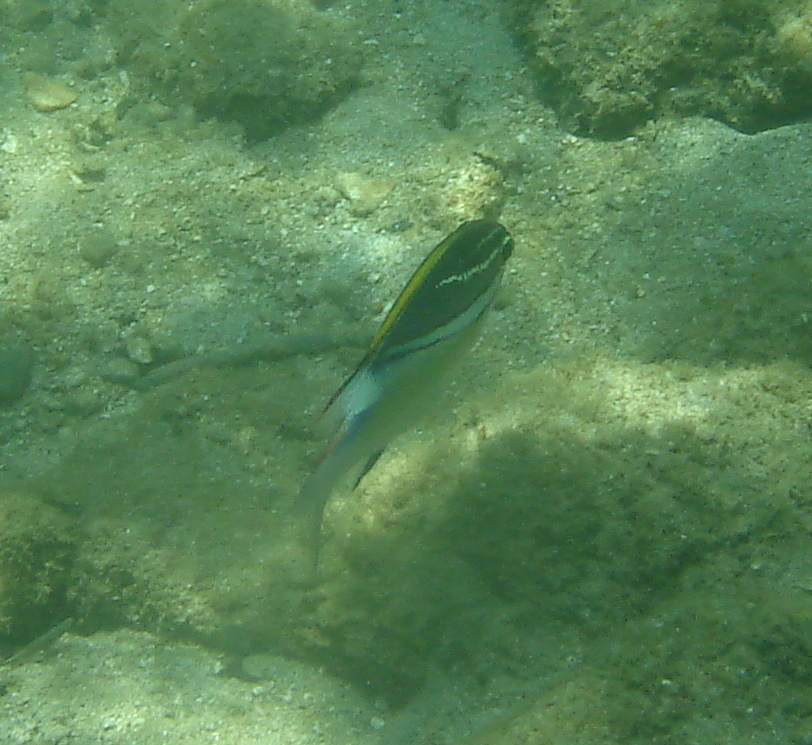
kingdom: Animalia
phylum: Chordata
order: Perciformes
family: Nemipteridae
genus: Scolopsis
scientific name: Scolopsis bilineata
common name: Two-lined monocle bream
